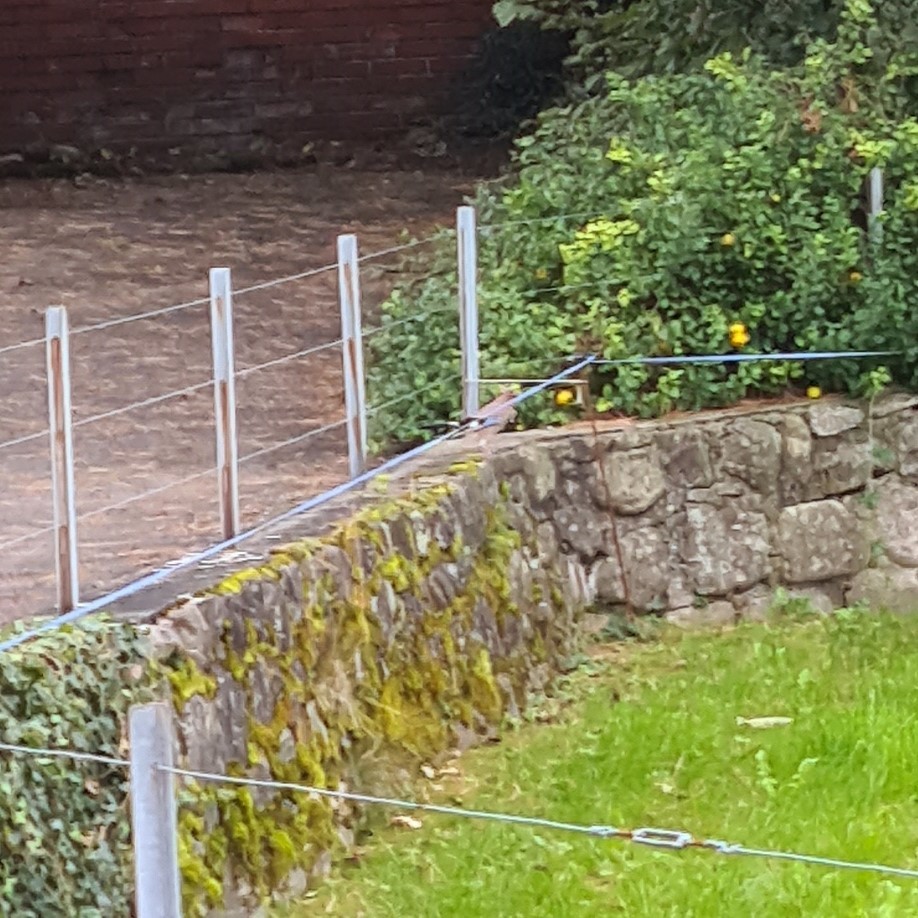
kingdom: Animalia
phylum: Chordata
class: Aves
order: Passeriformes
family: Corvidae
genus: Garrulus
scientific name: Garrulus glandarius
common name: Eurasian jay
